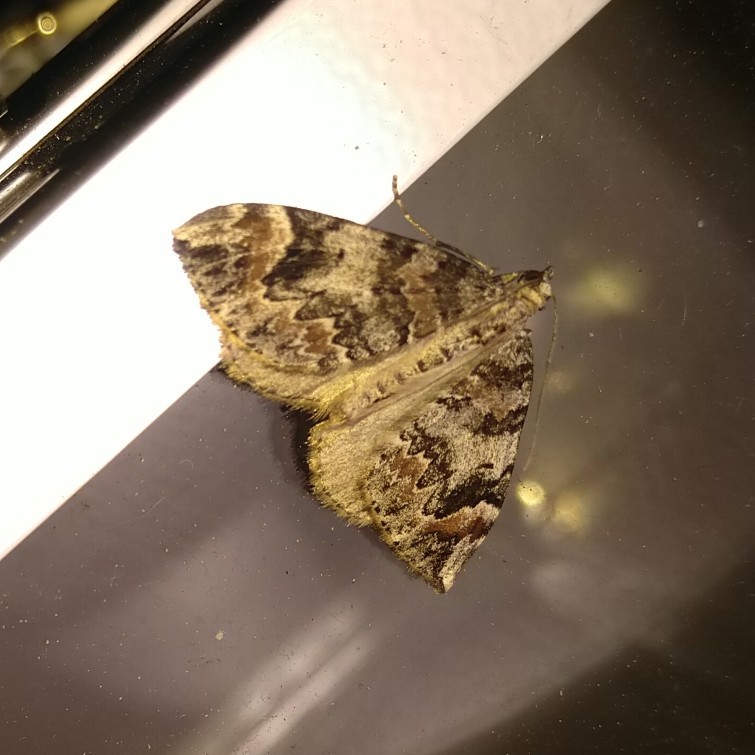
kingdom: Animalia
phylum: Arthropoda
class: Insecta
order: Lepidoptera
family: Geometridae
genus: Dysstroma
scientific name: Dysstroma citrata
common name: Dark marbled carpet
